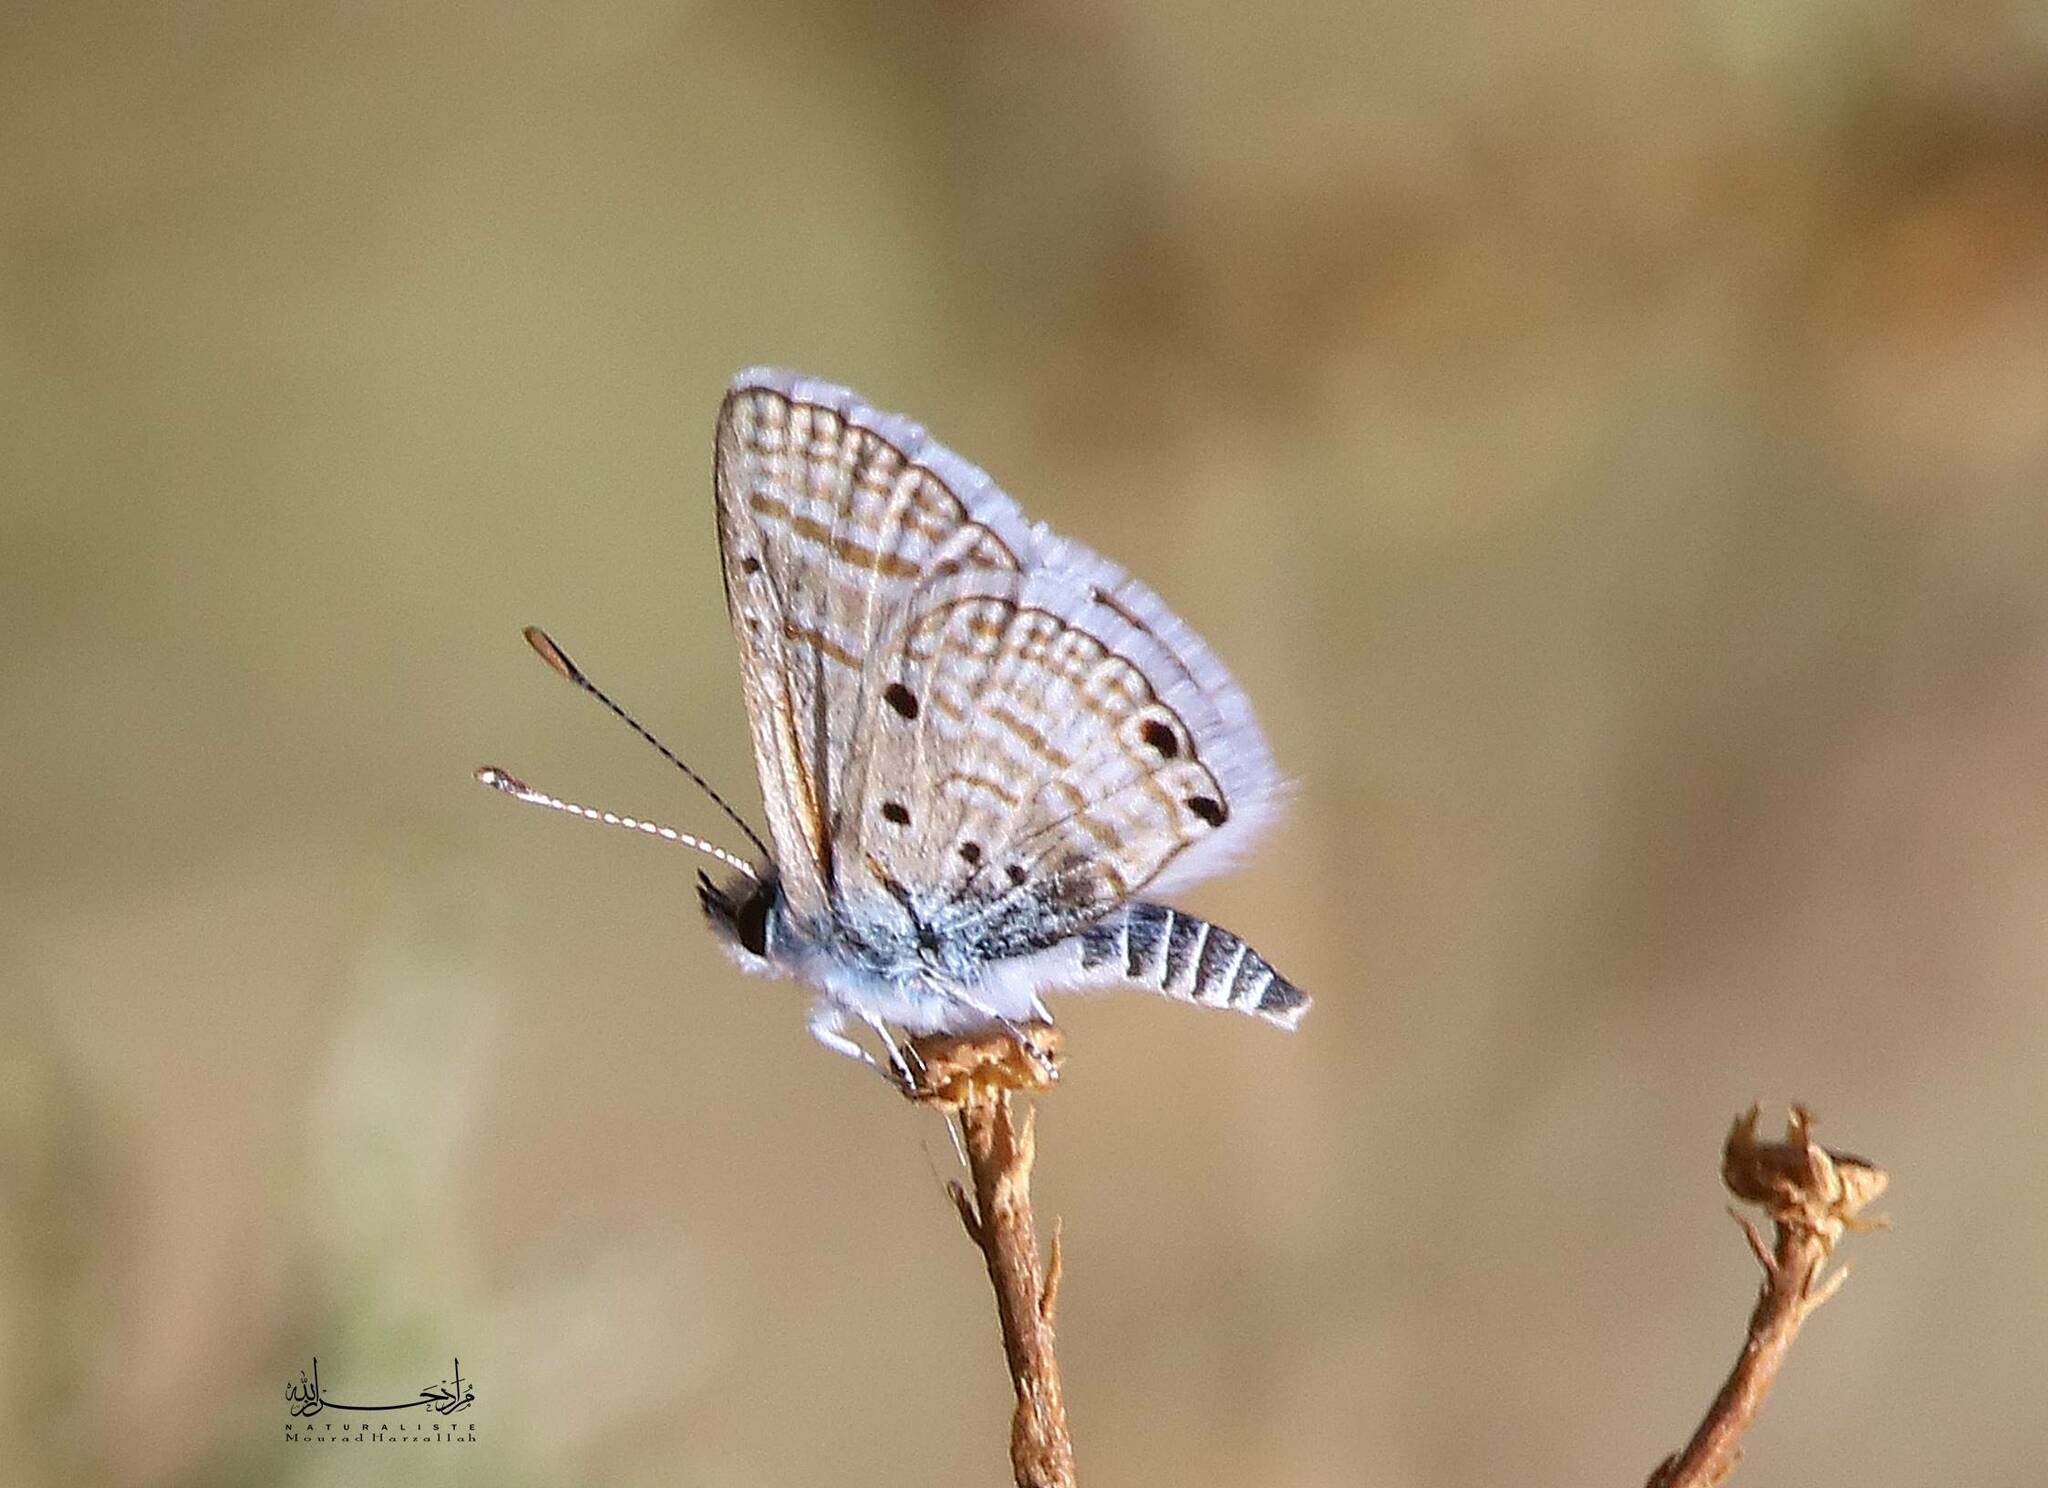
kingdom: Animalia
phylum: Arthropoda
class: Insecta
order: Lepidoptera
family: Lycaenidae
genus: Azanus
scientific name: Azanus ubaldus
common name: Desert babul blue
